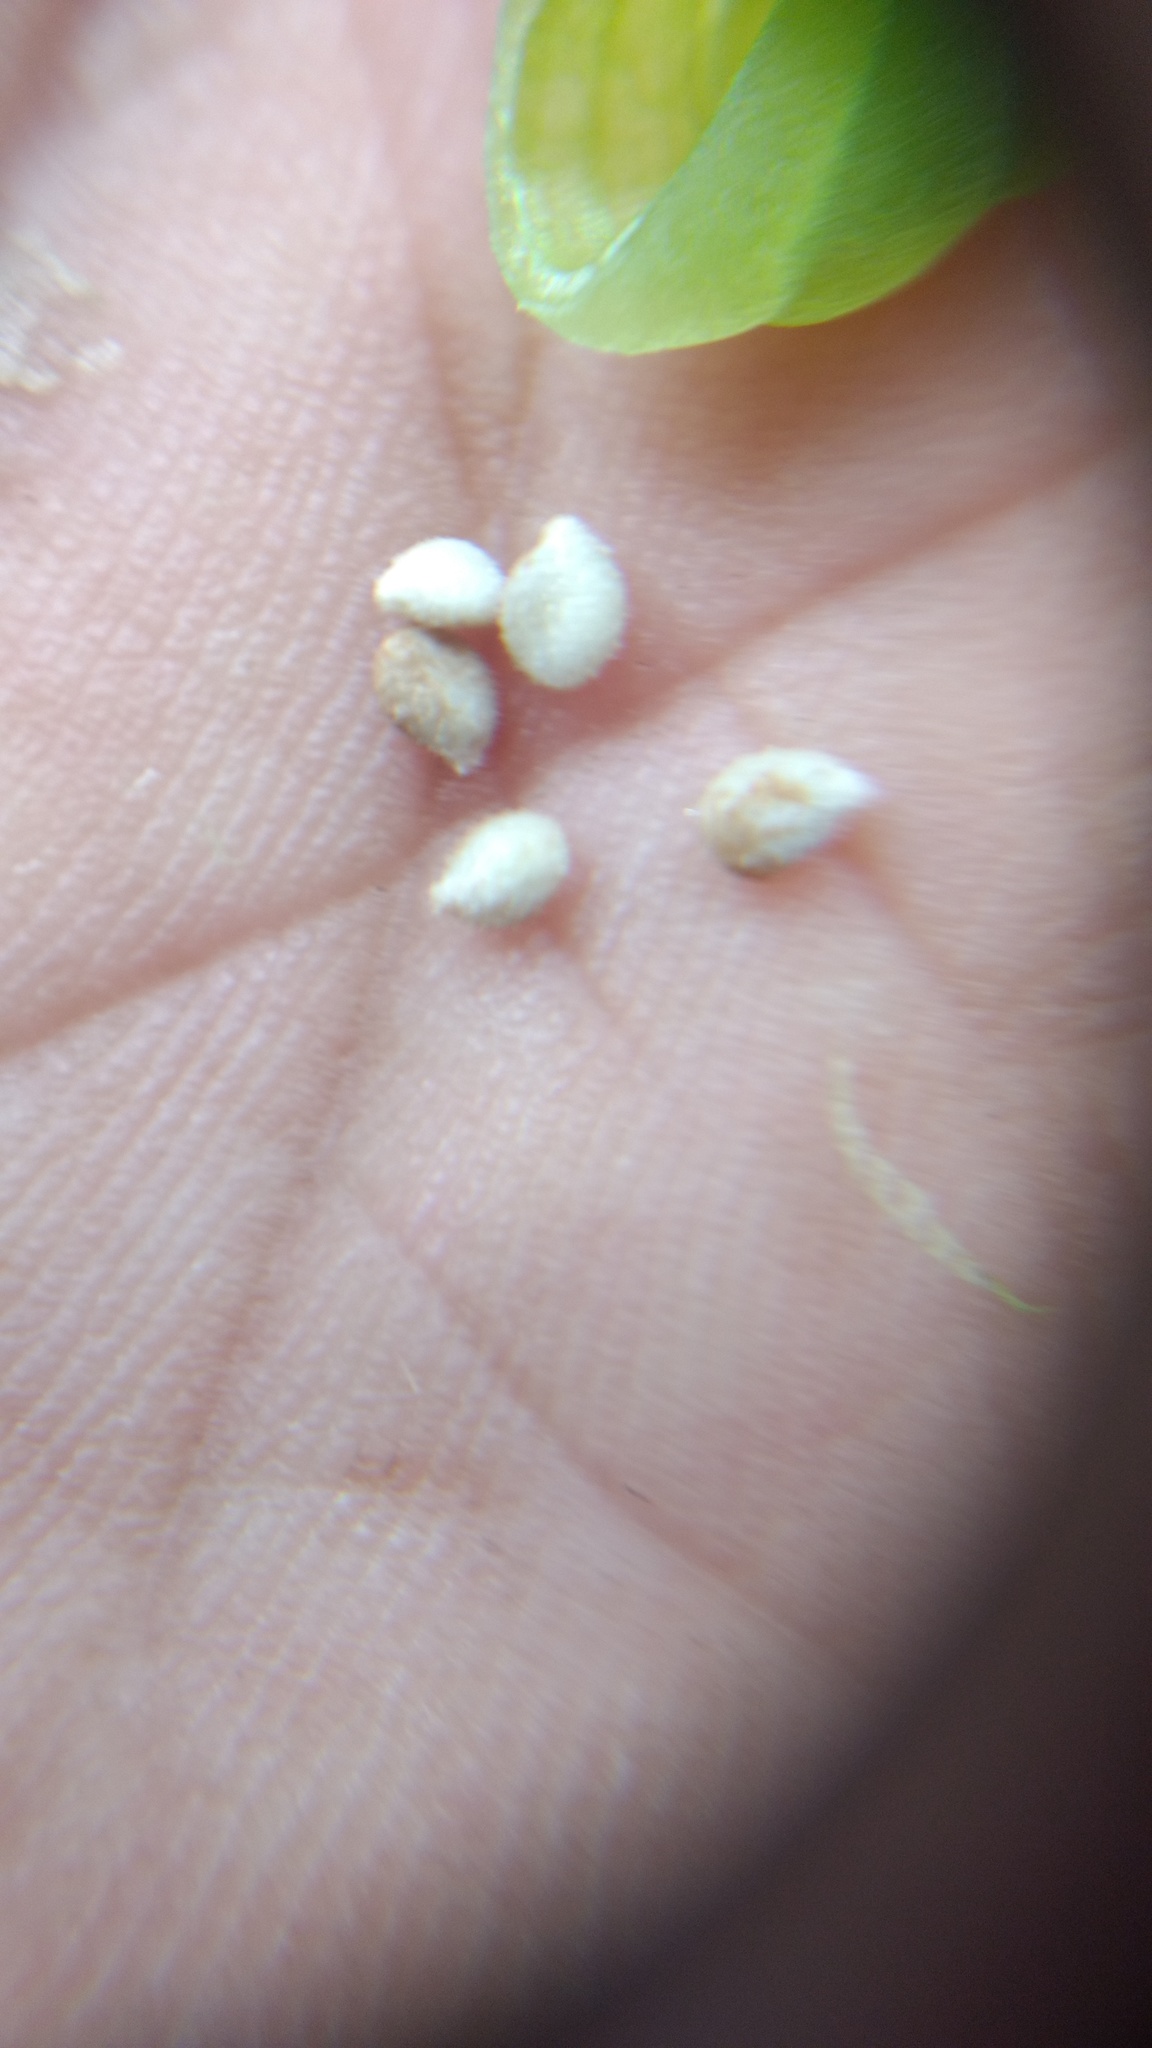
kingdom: Plantae
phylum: Tracheophyta
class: Magnoliopsida
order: Ericales
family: Balsaminaceae
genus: Impatiens
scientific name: Impatiens dasysperma
